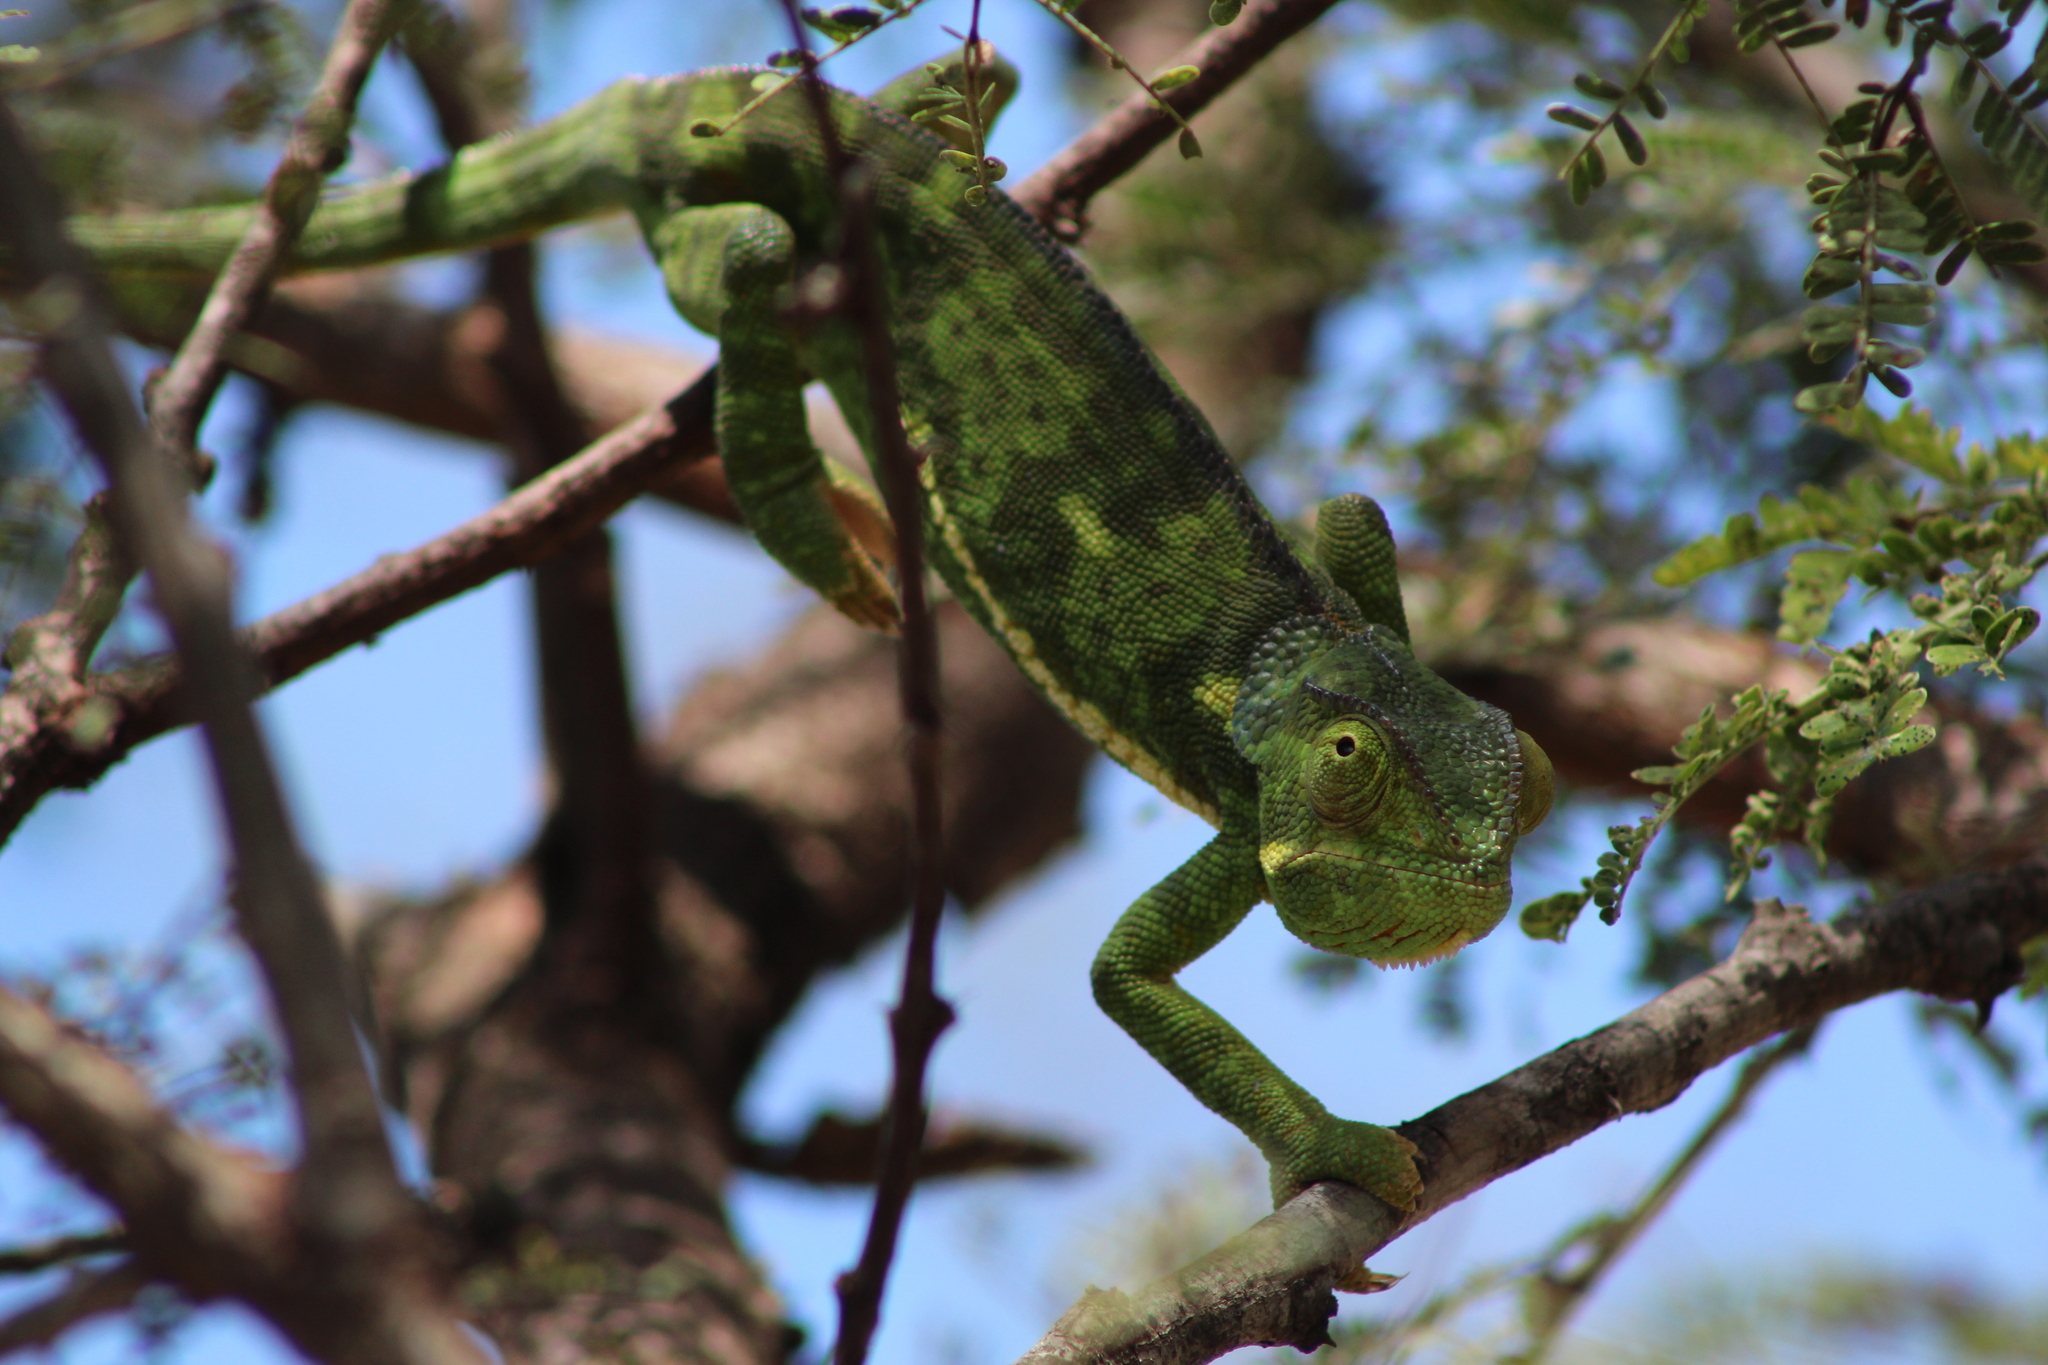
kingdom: Animalia
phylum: Chordata
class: Squamata
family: Chamaeleonidae
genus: Chamaeleo
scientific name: Chamaeleo dilepis
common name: Flapneck chameleon
